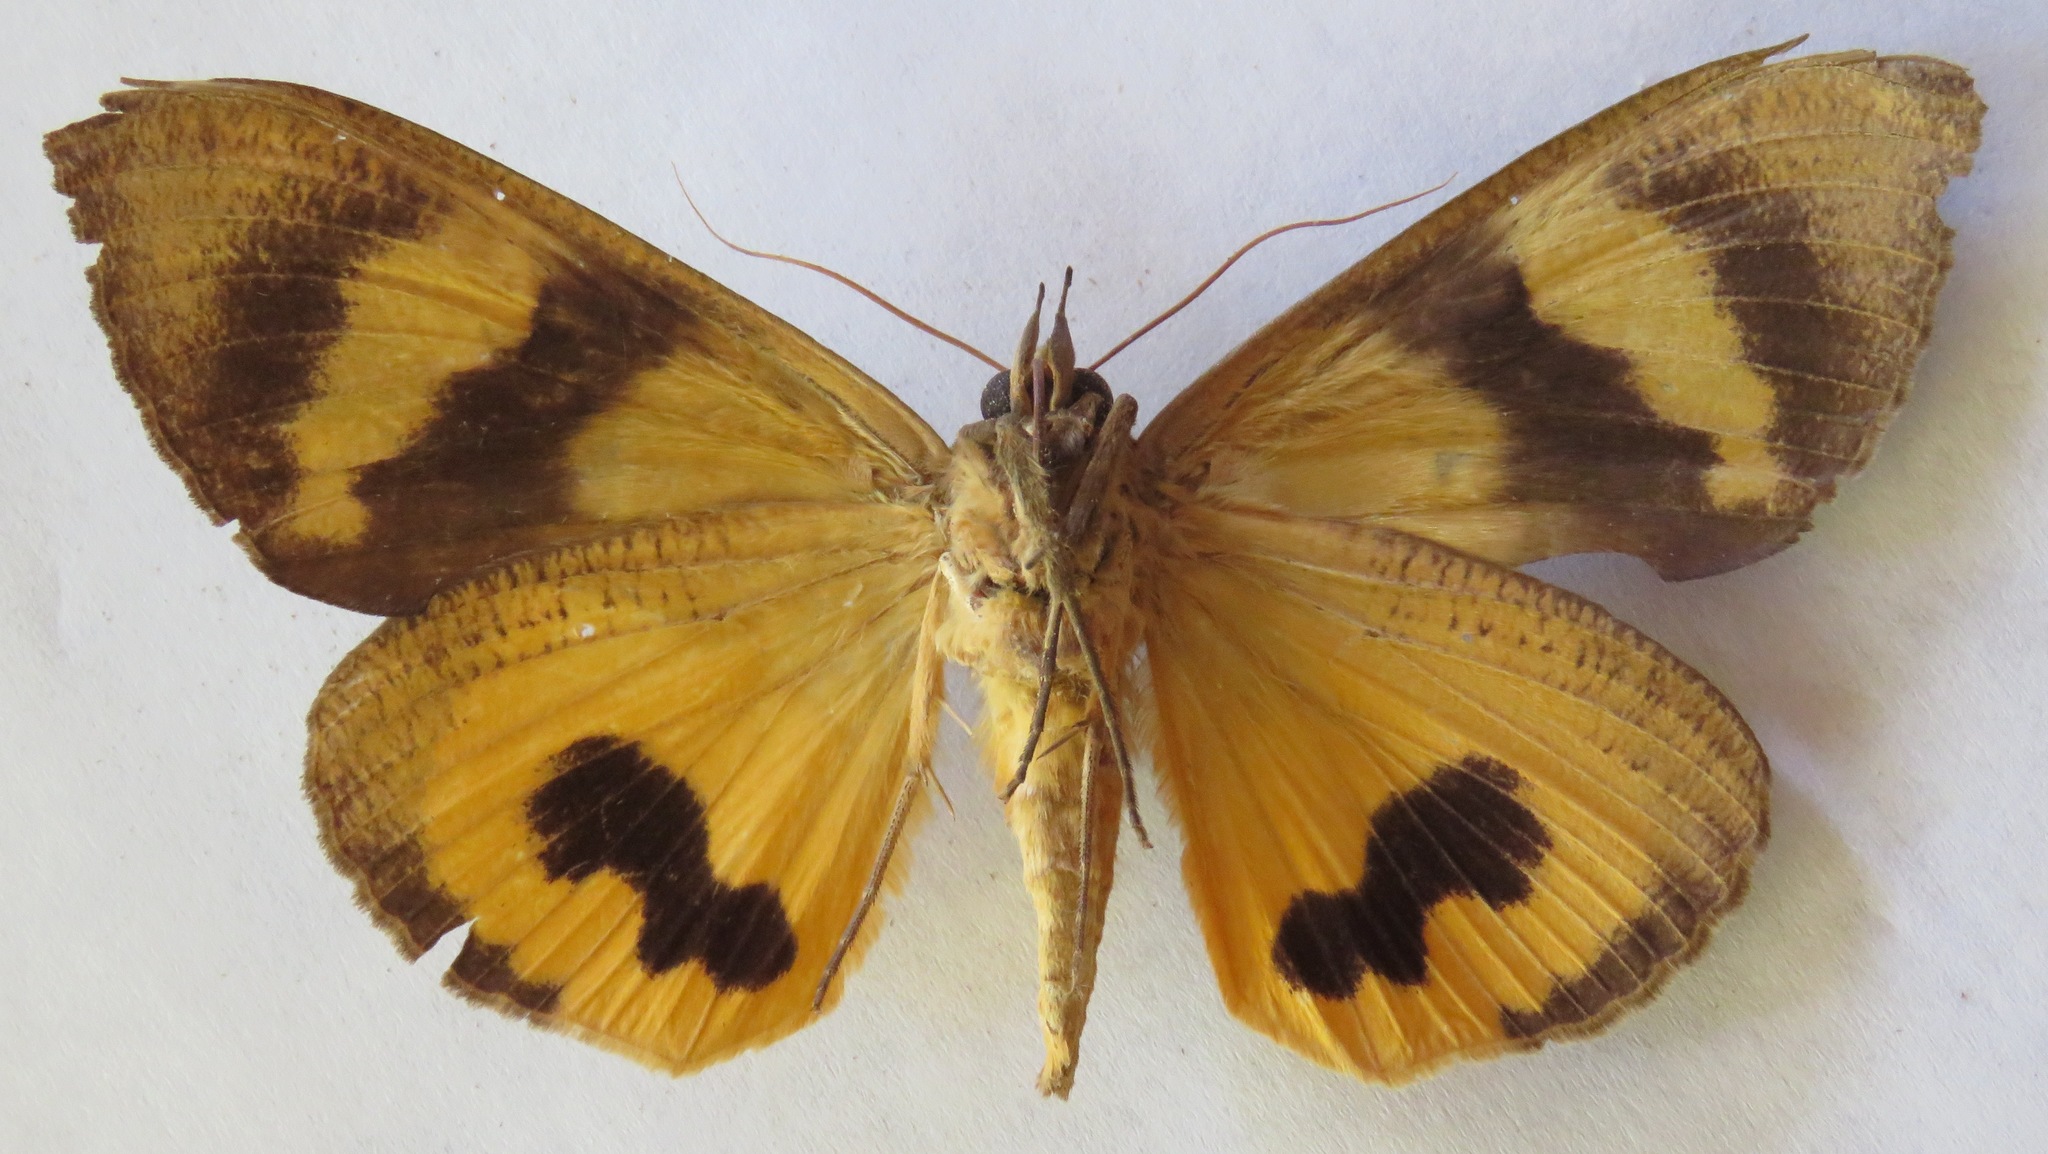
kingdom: Animalia
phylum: Arthropoda
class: Insecta
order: Lepidoptera
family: Erebidae
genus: Eudocima
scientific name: Eudocima serpentifera
